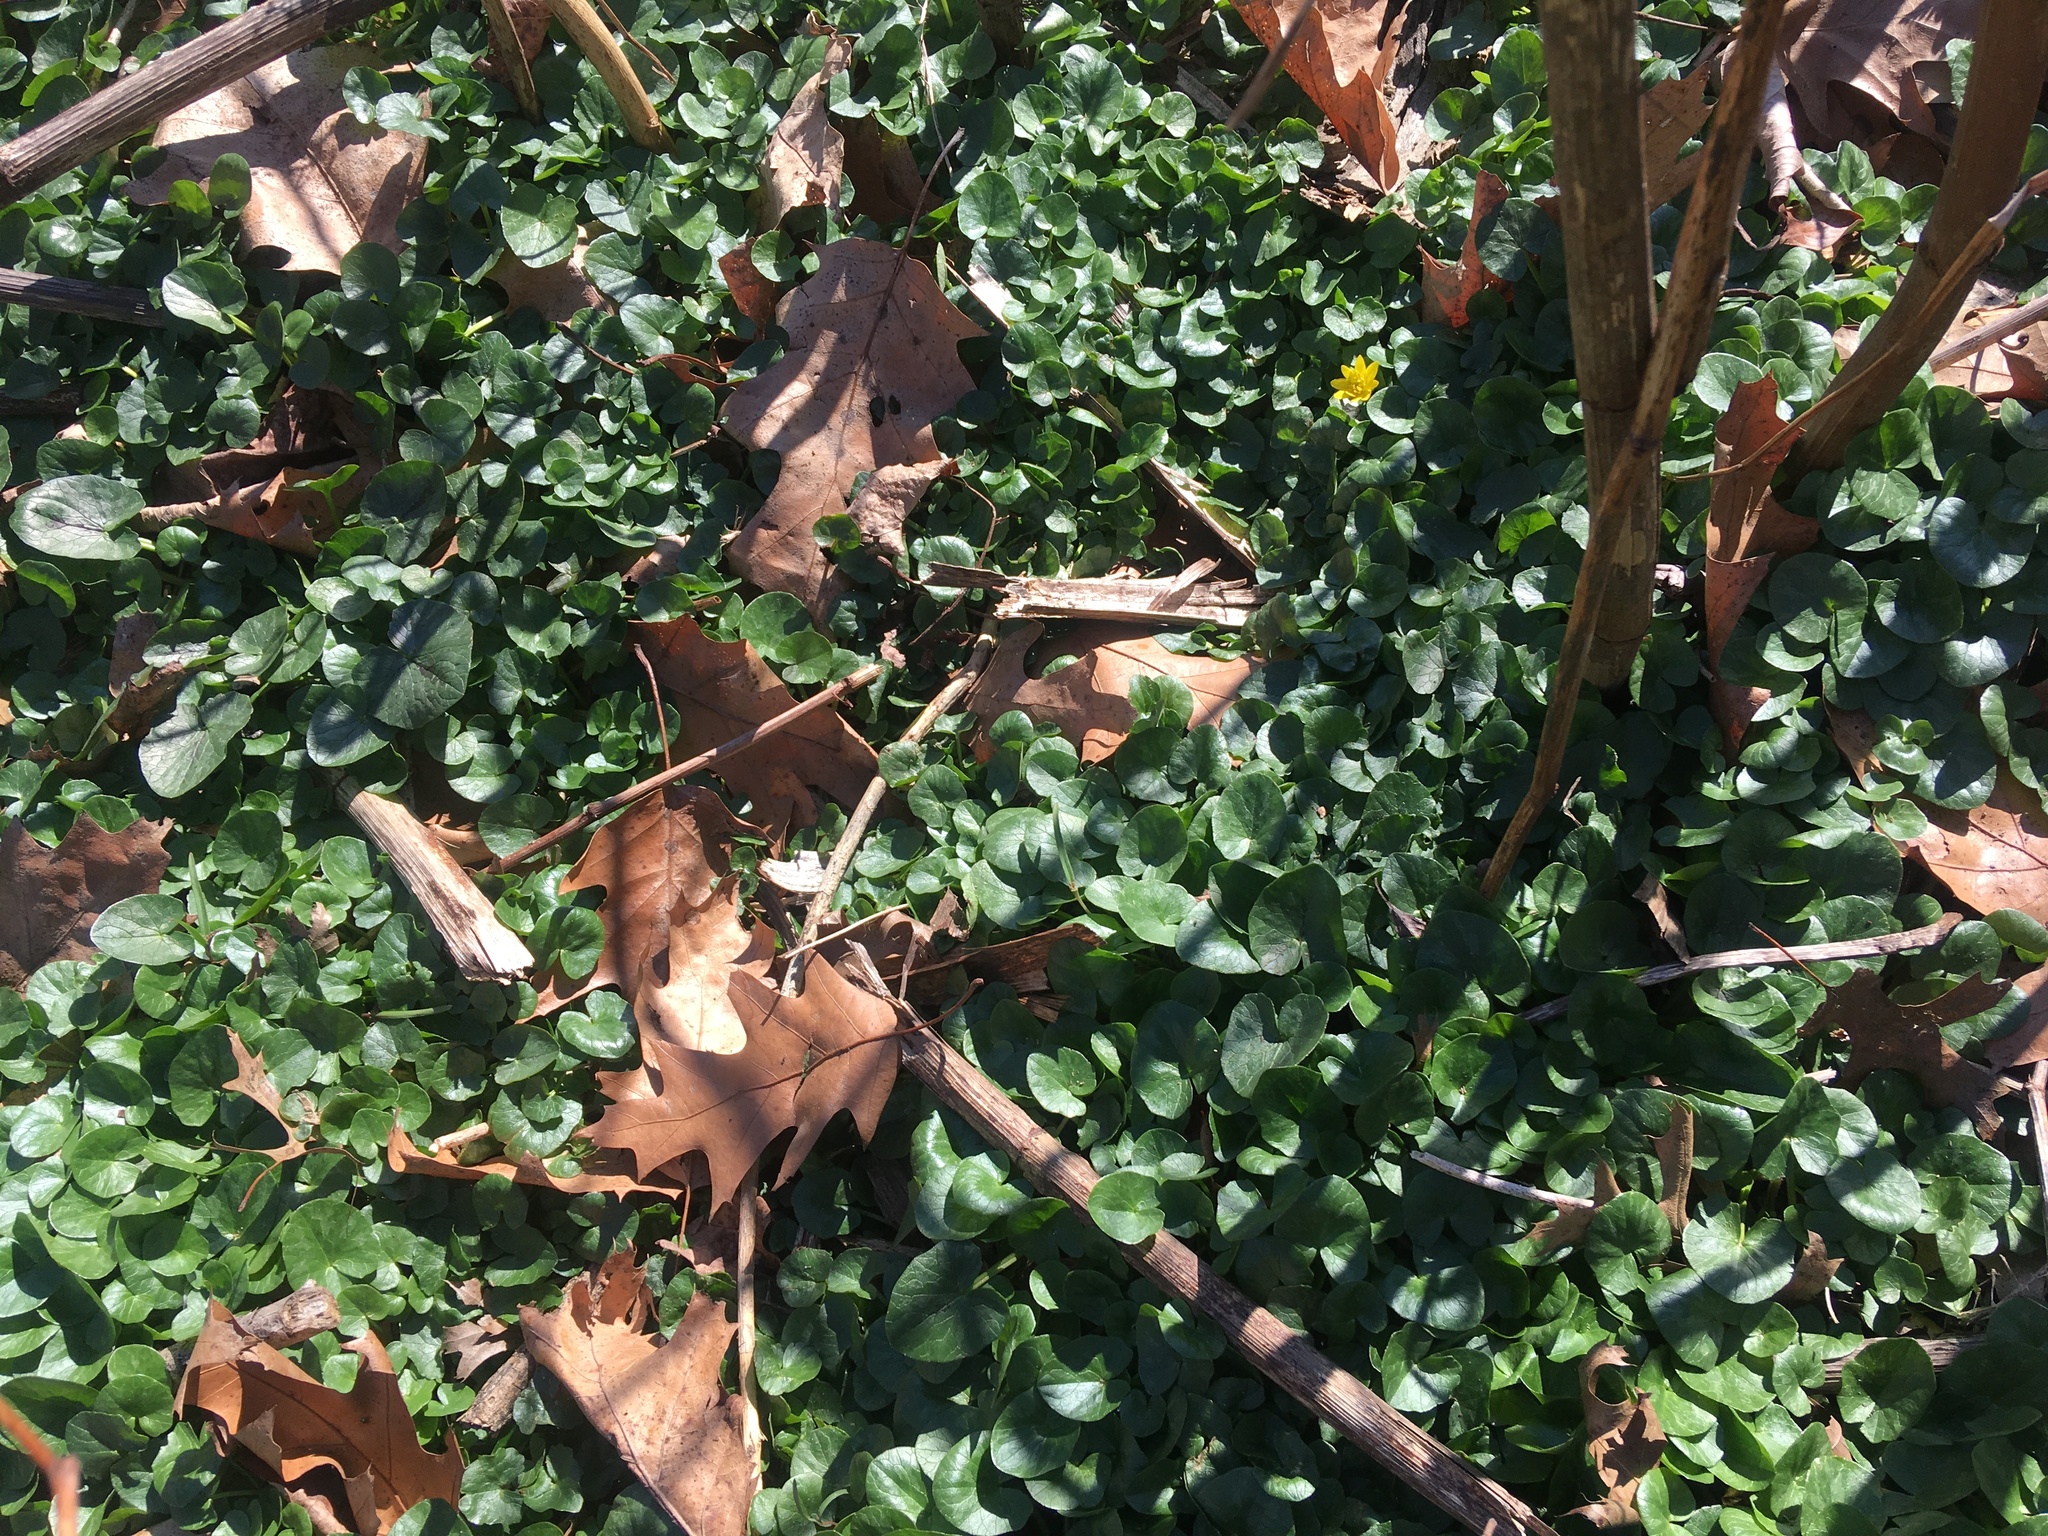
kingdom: Plantae
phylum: Tracheophyta
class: Magnoliopsida
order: Ranunculales
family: Ranunculaceae
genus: Ficaria
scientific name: Ficaria verna
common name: Lesser celandine
